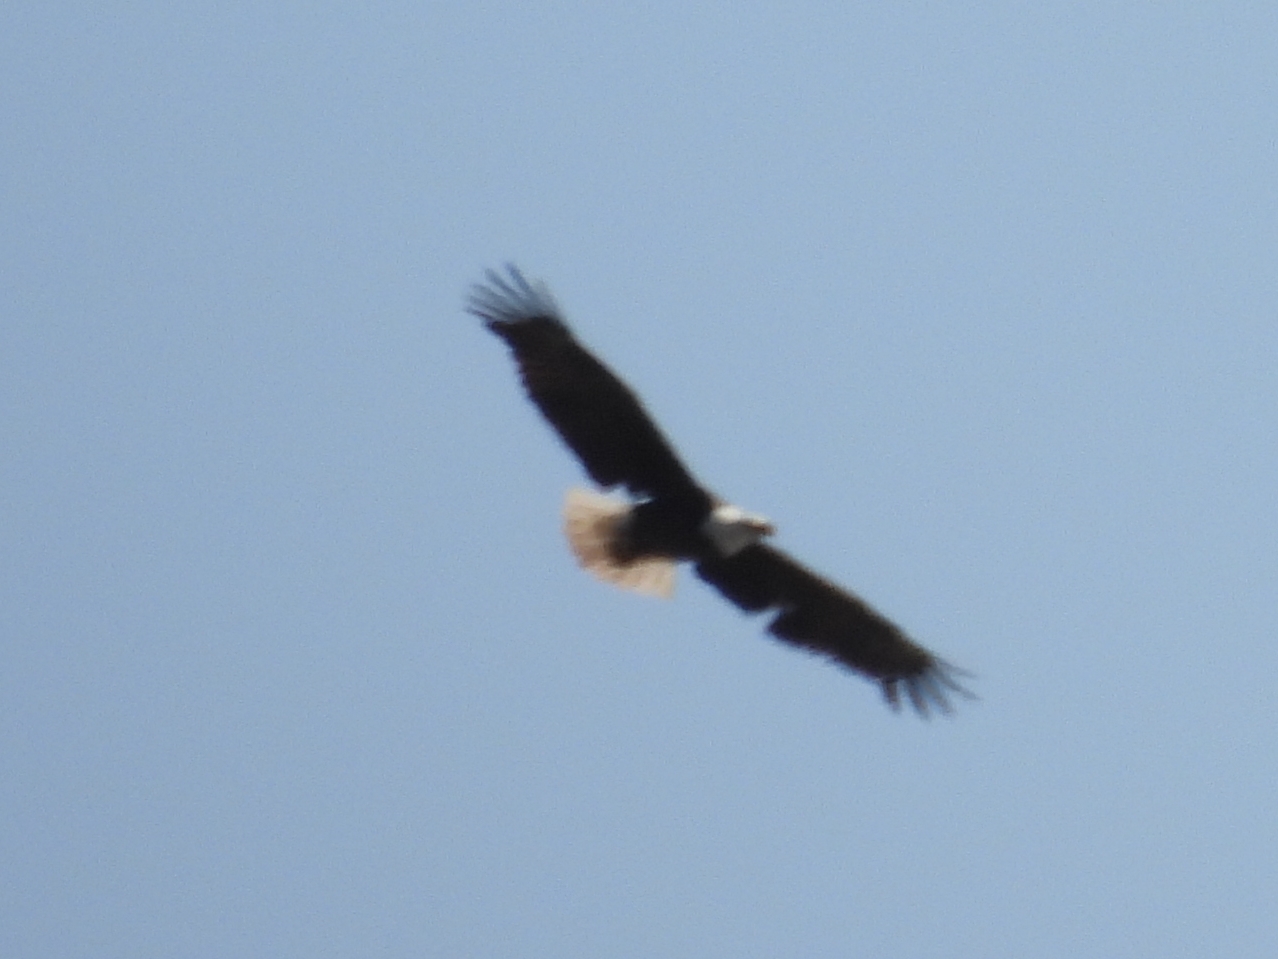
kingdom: Animalia
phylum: Chordata
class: Aves
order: Accipitriformes
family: Accipitridae
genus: Haliaeetus
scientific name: Haliaeetus leucocephalus
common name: Bald eagle
